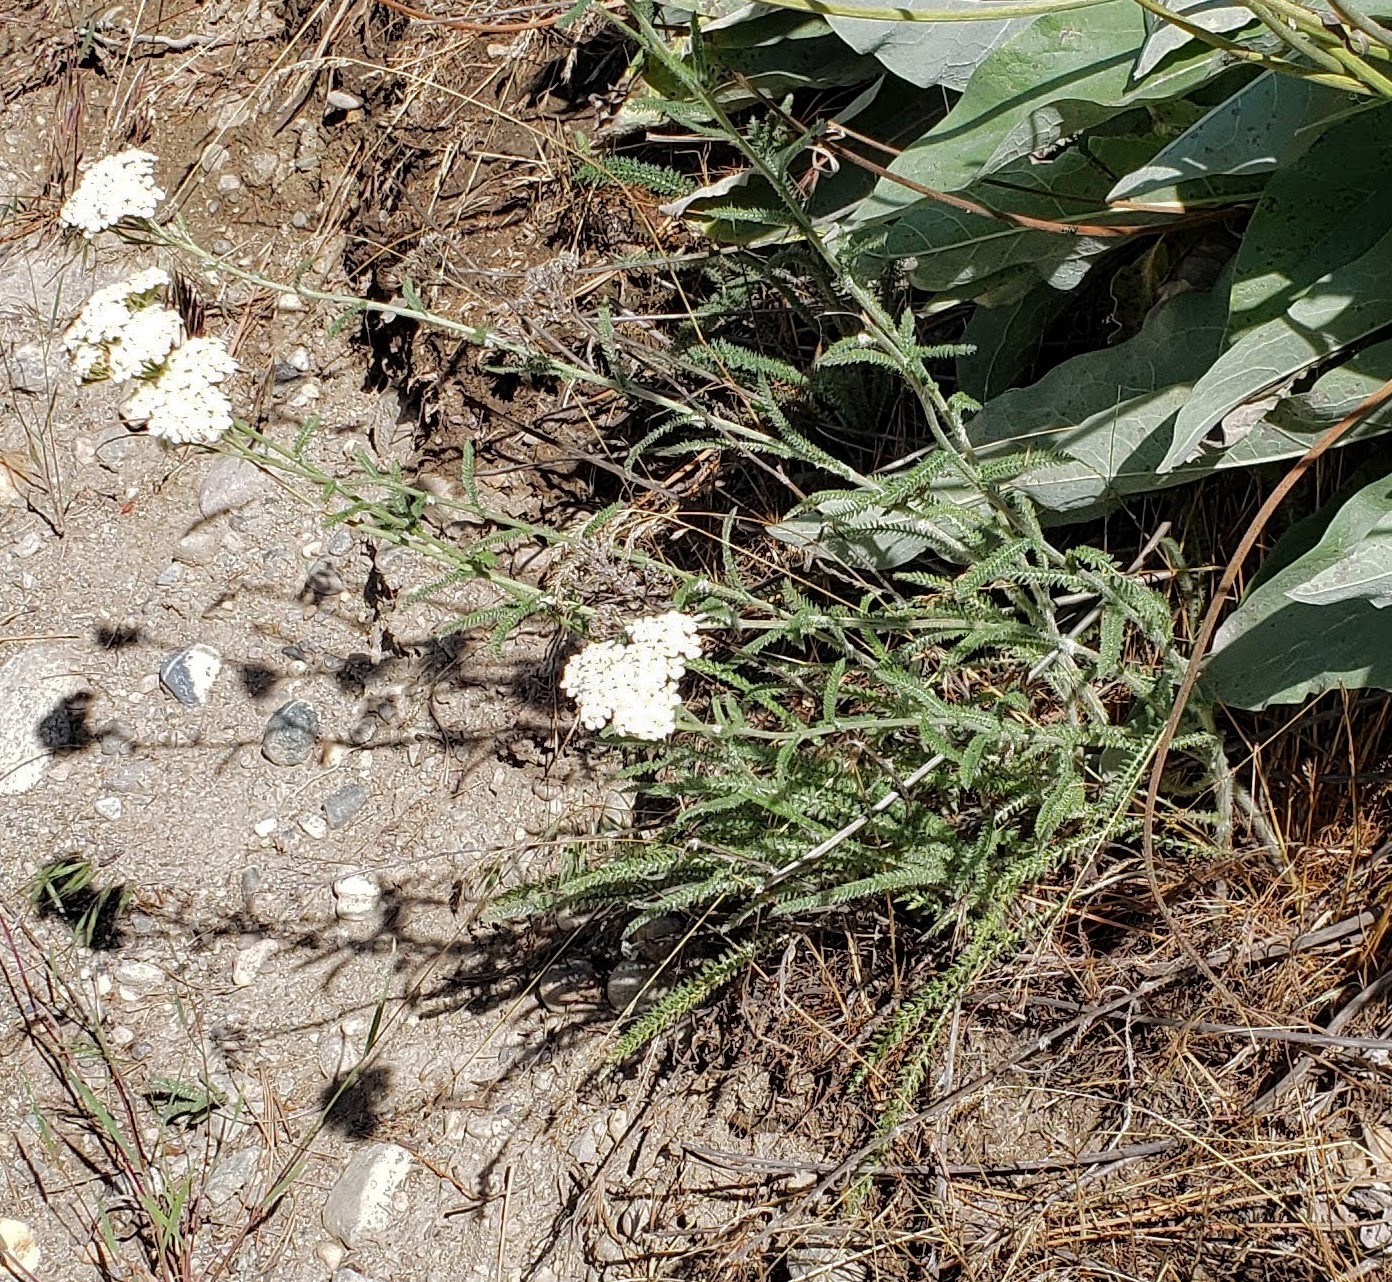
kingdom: Plantae
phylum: Tracheophyta
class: Magnoliopsida
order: Asterales
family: Asteraceae
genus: Achillea
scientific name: Achillea millefolium
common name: Yarrow
